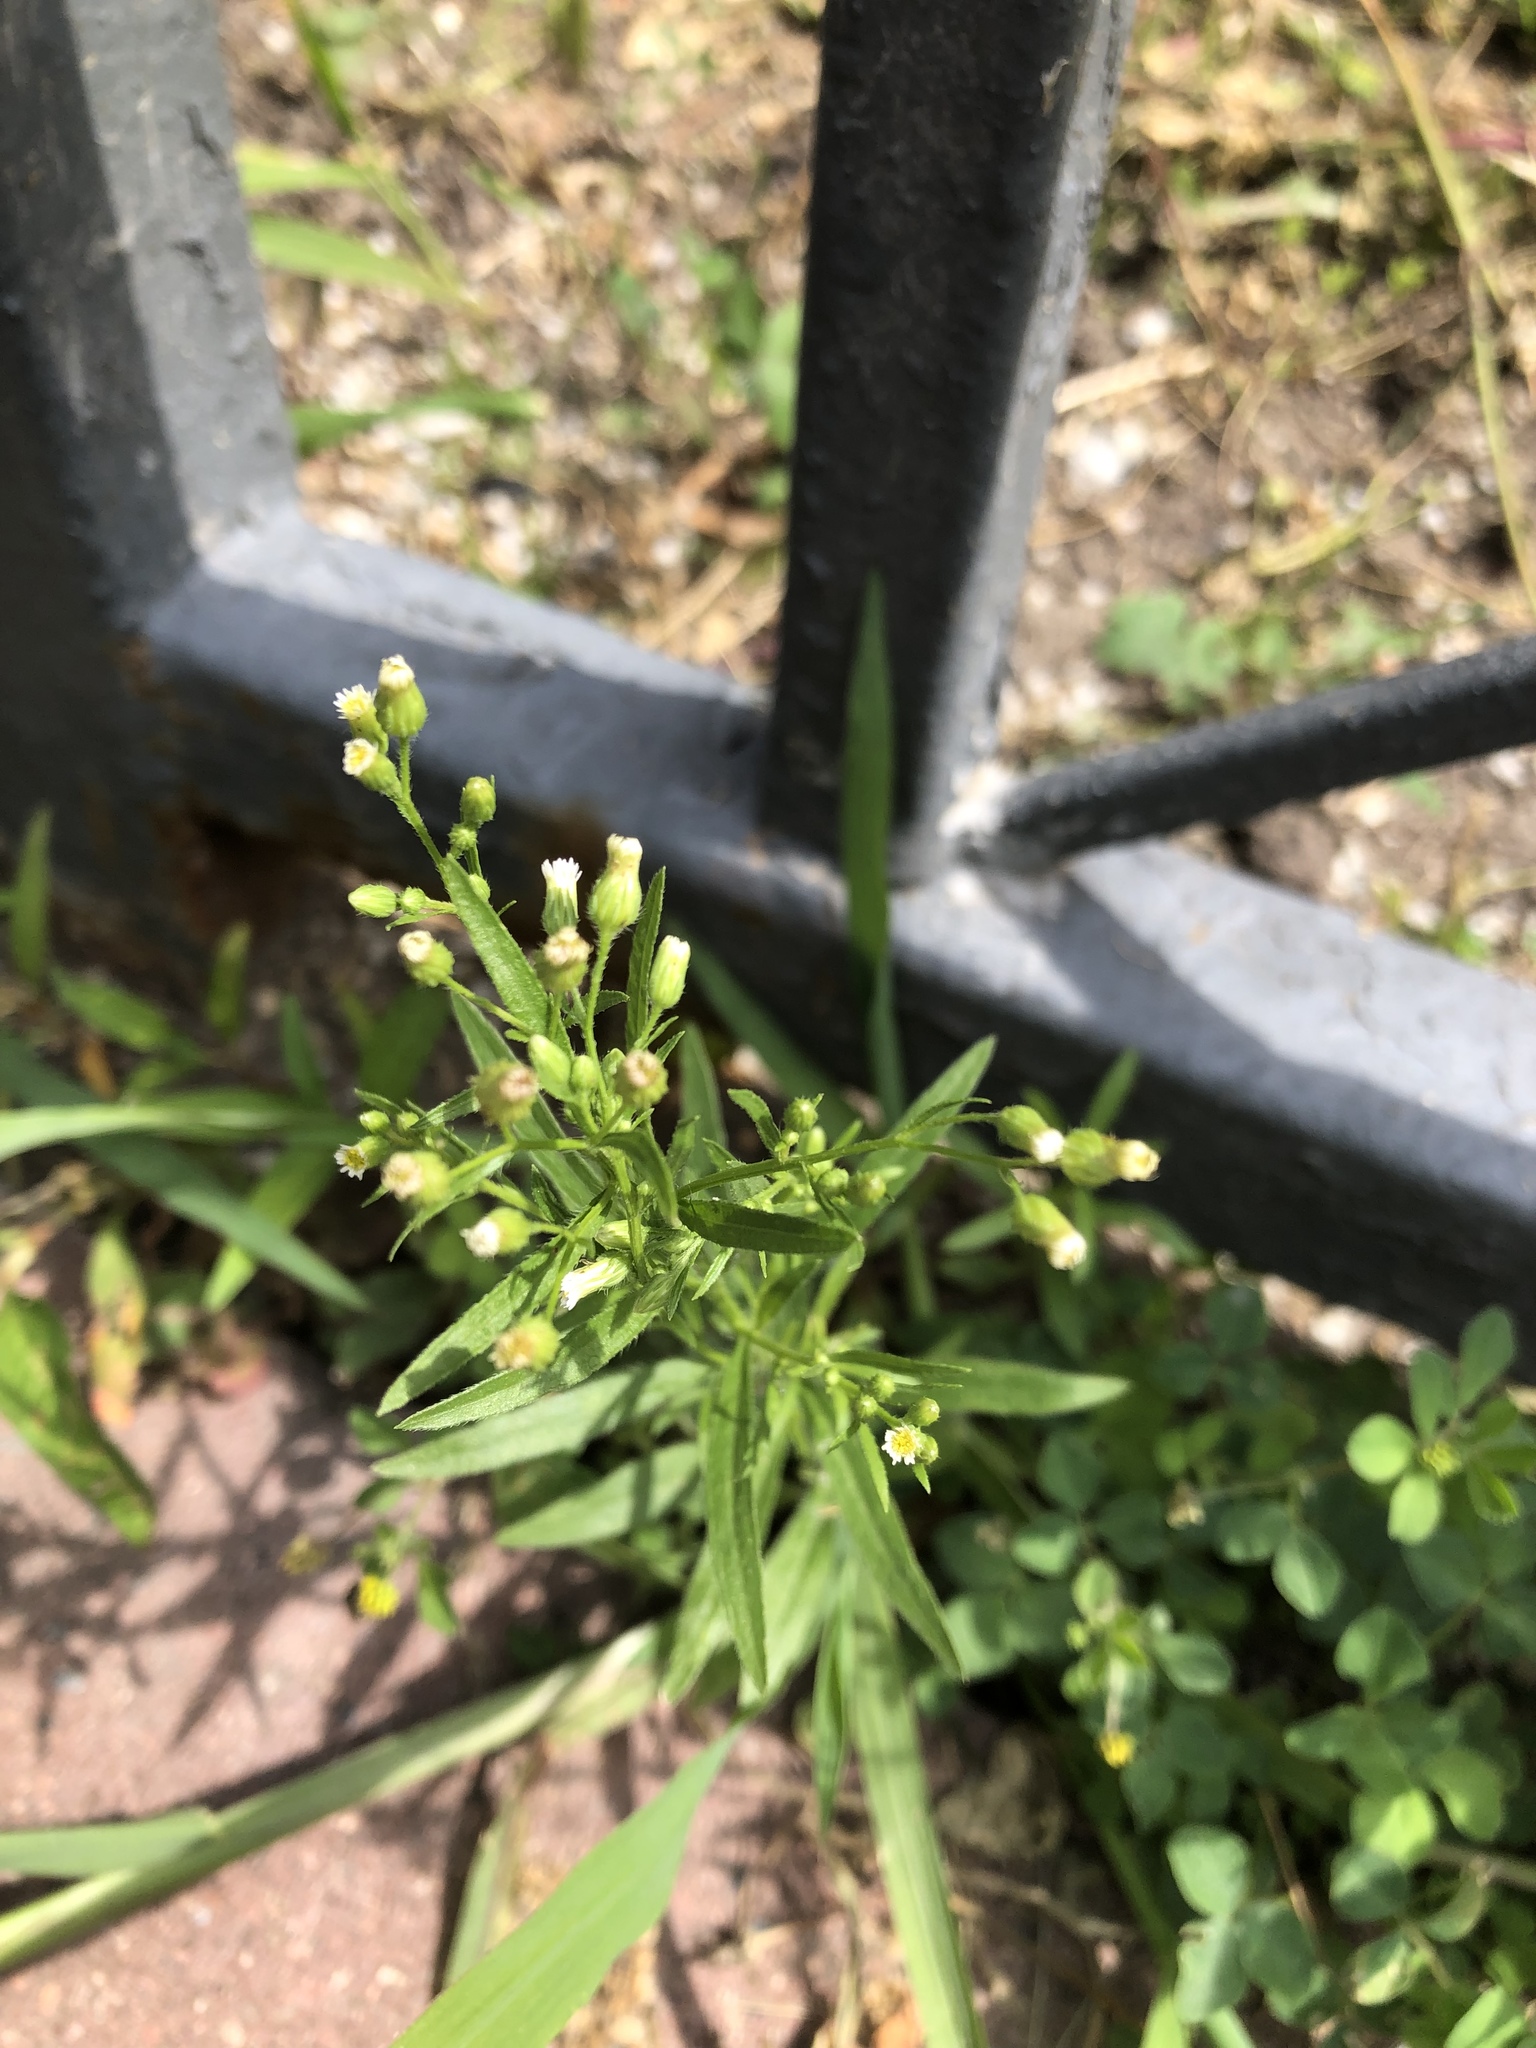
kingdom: Plantae
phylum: Tracheophyta
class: Magnoliopsida
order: Asterales
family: Asteraceae
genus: Erigeron
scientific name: Erigeron canadensis
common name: Canadian fleabane
